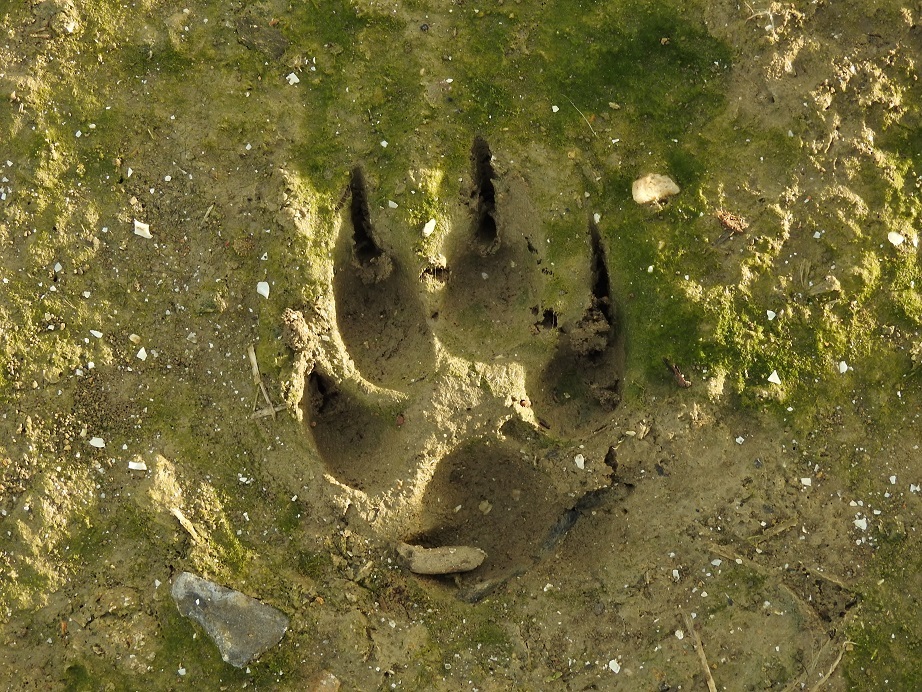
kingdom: Animalia
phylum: Chordata
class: Mammalia
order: Carnivora
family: Canidae
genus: Canis
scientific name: Canis lupus
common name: Gray wolf
